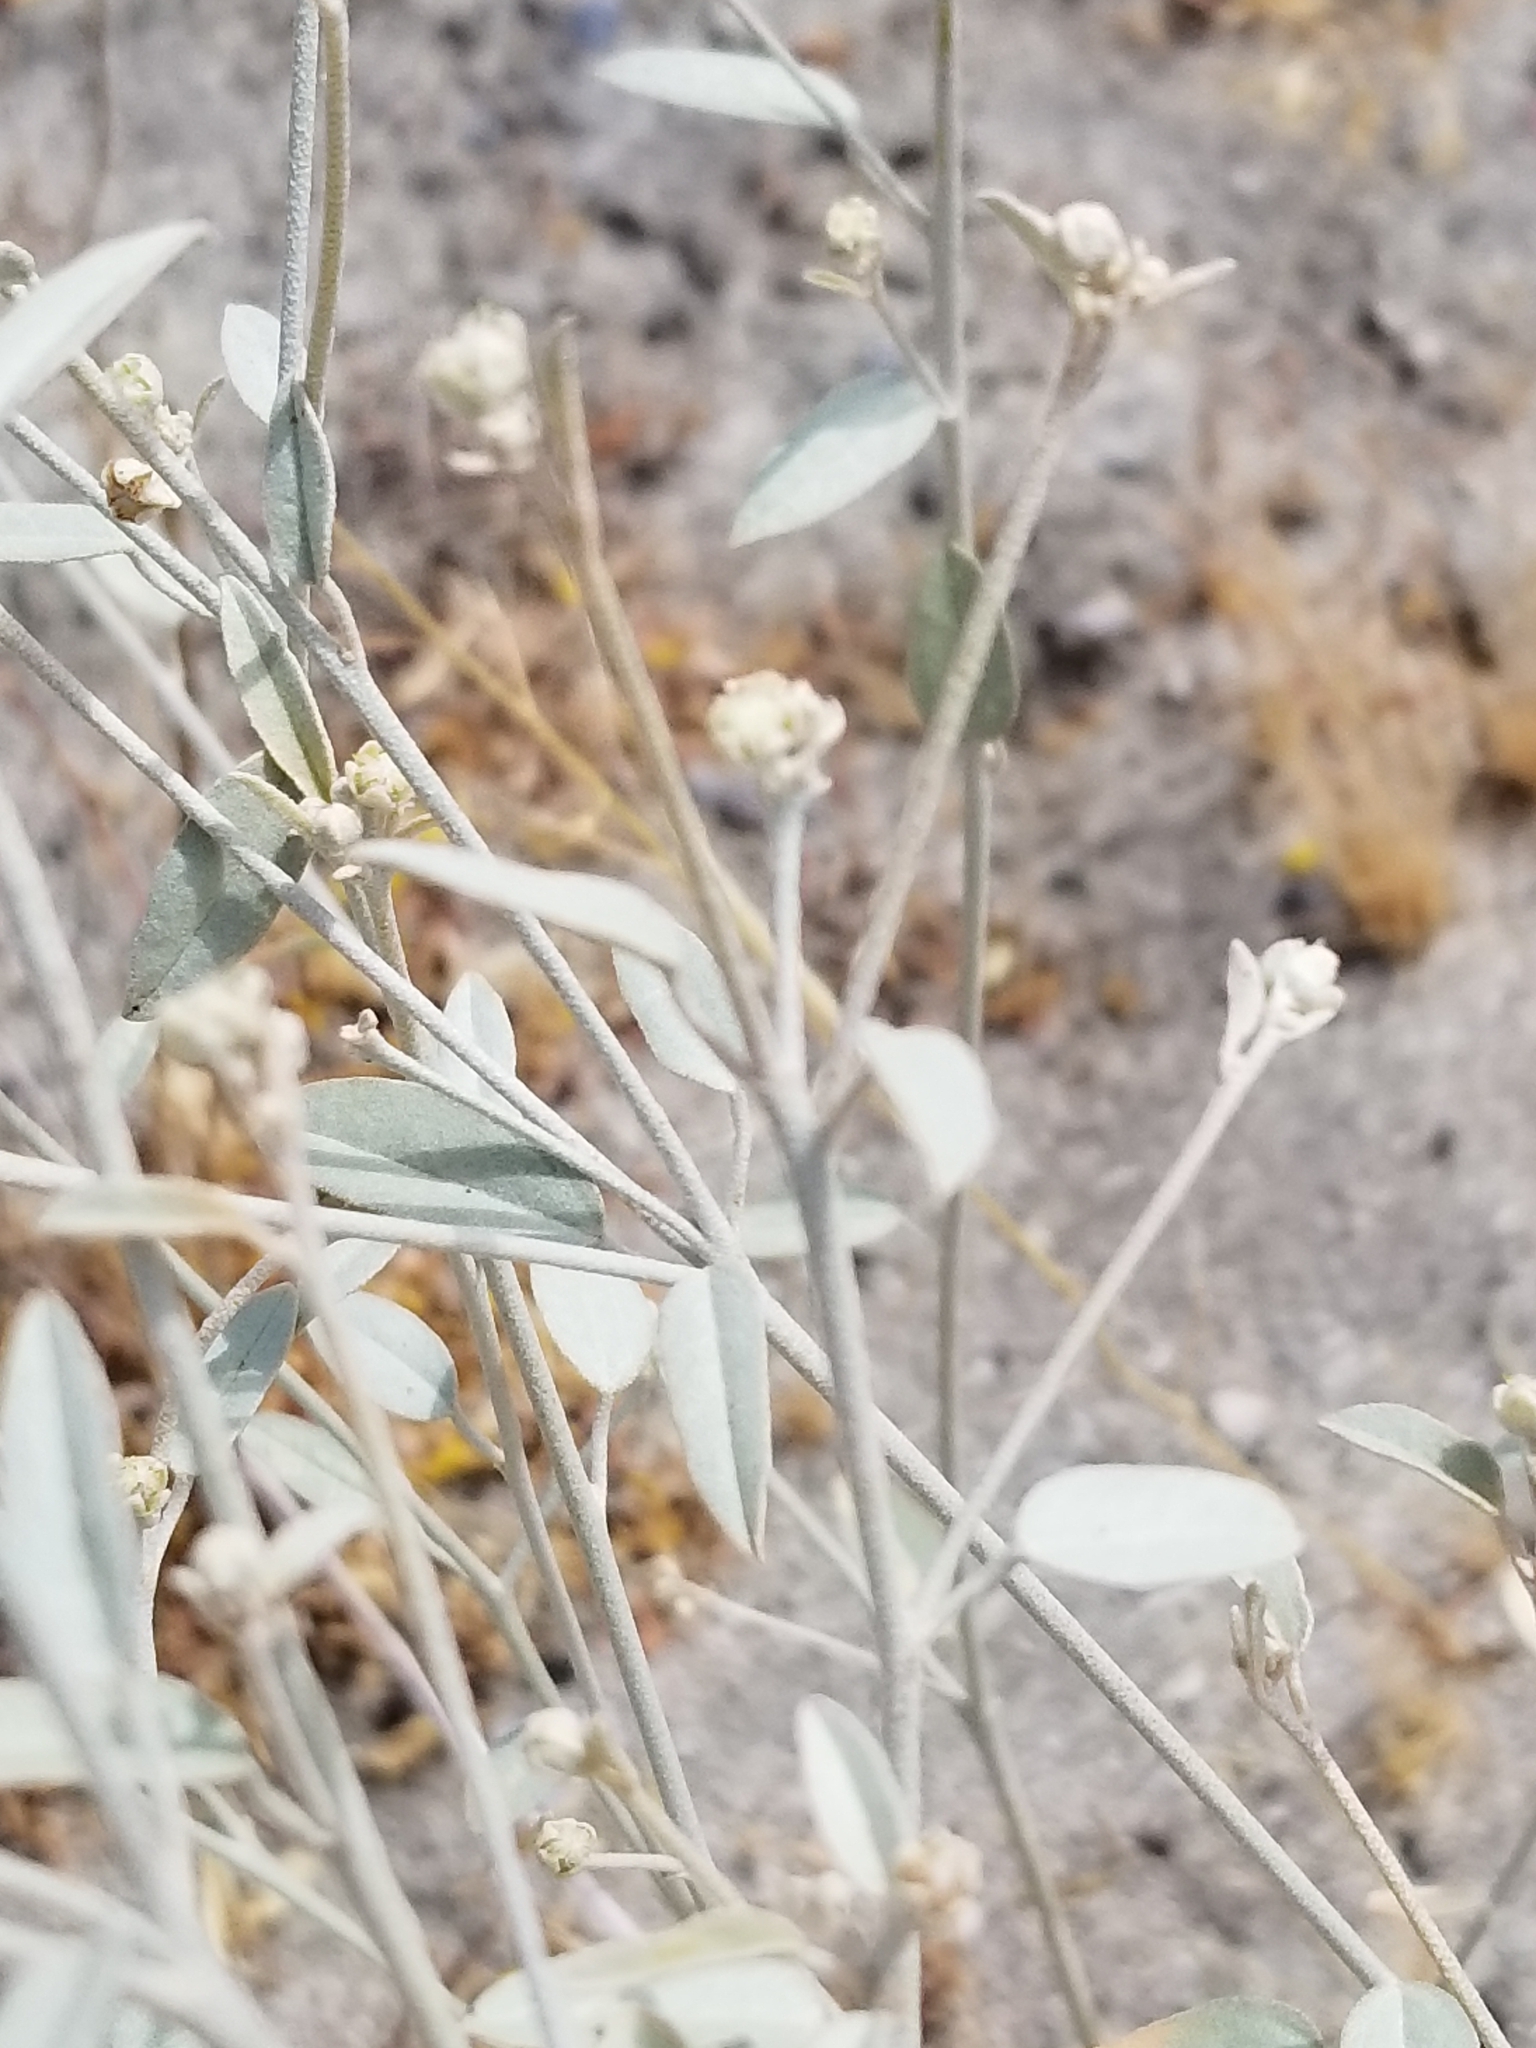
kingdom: Plantae
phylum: Tracheophyta
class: Magnoliopsida
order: Malpighiales
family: Euphorbiaceae
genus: Croton
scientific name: Croton californicus
